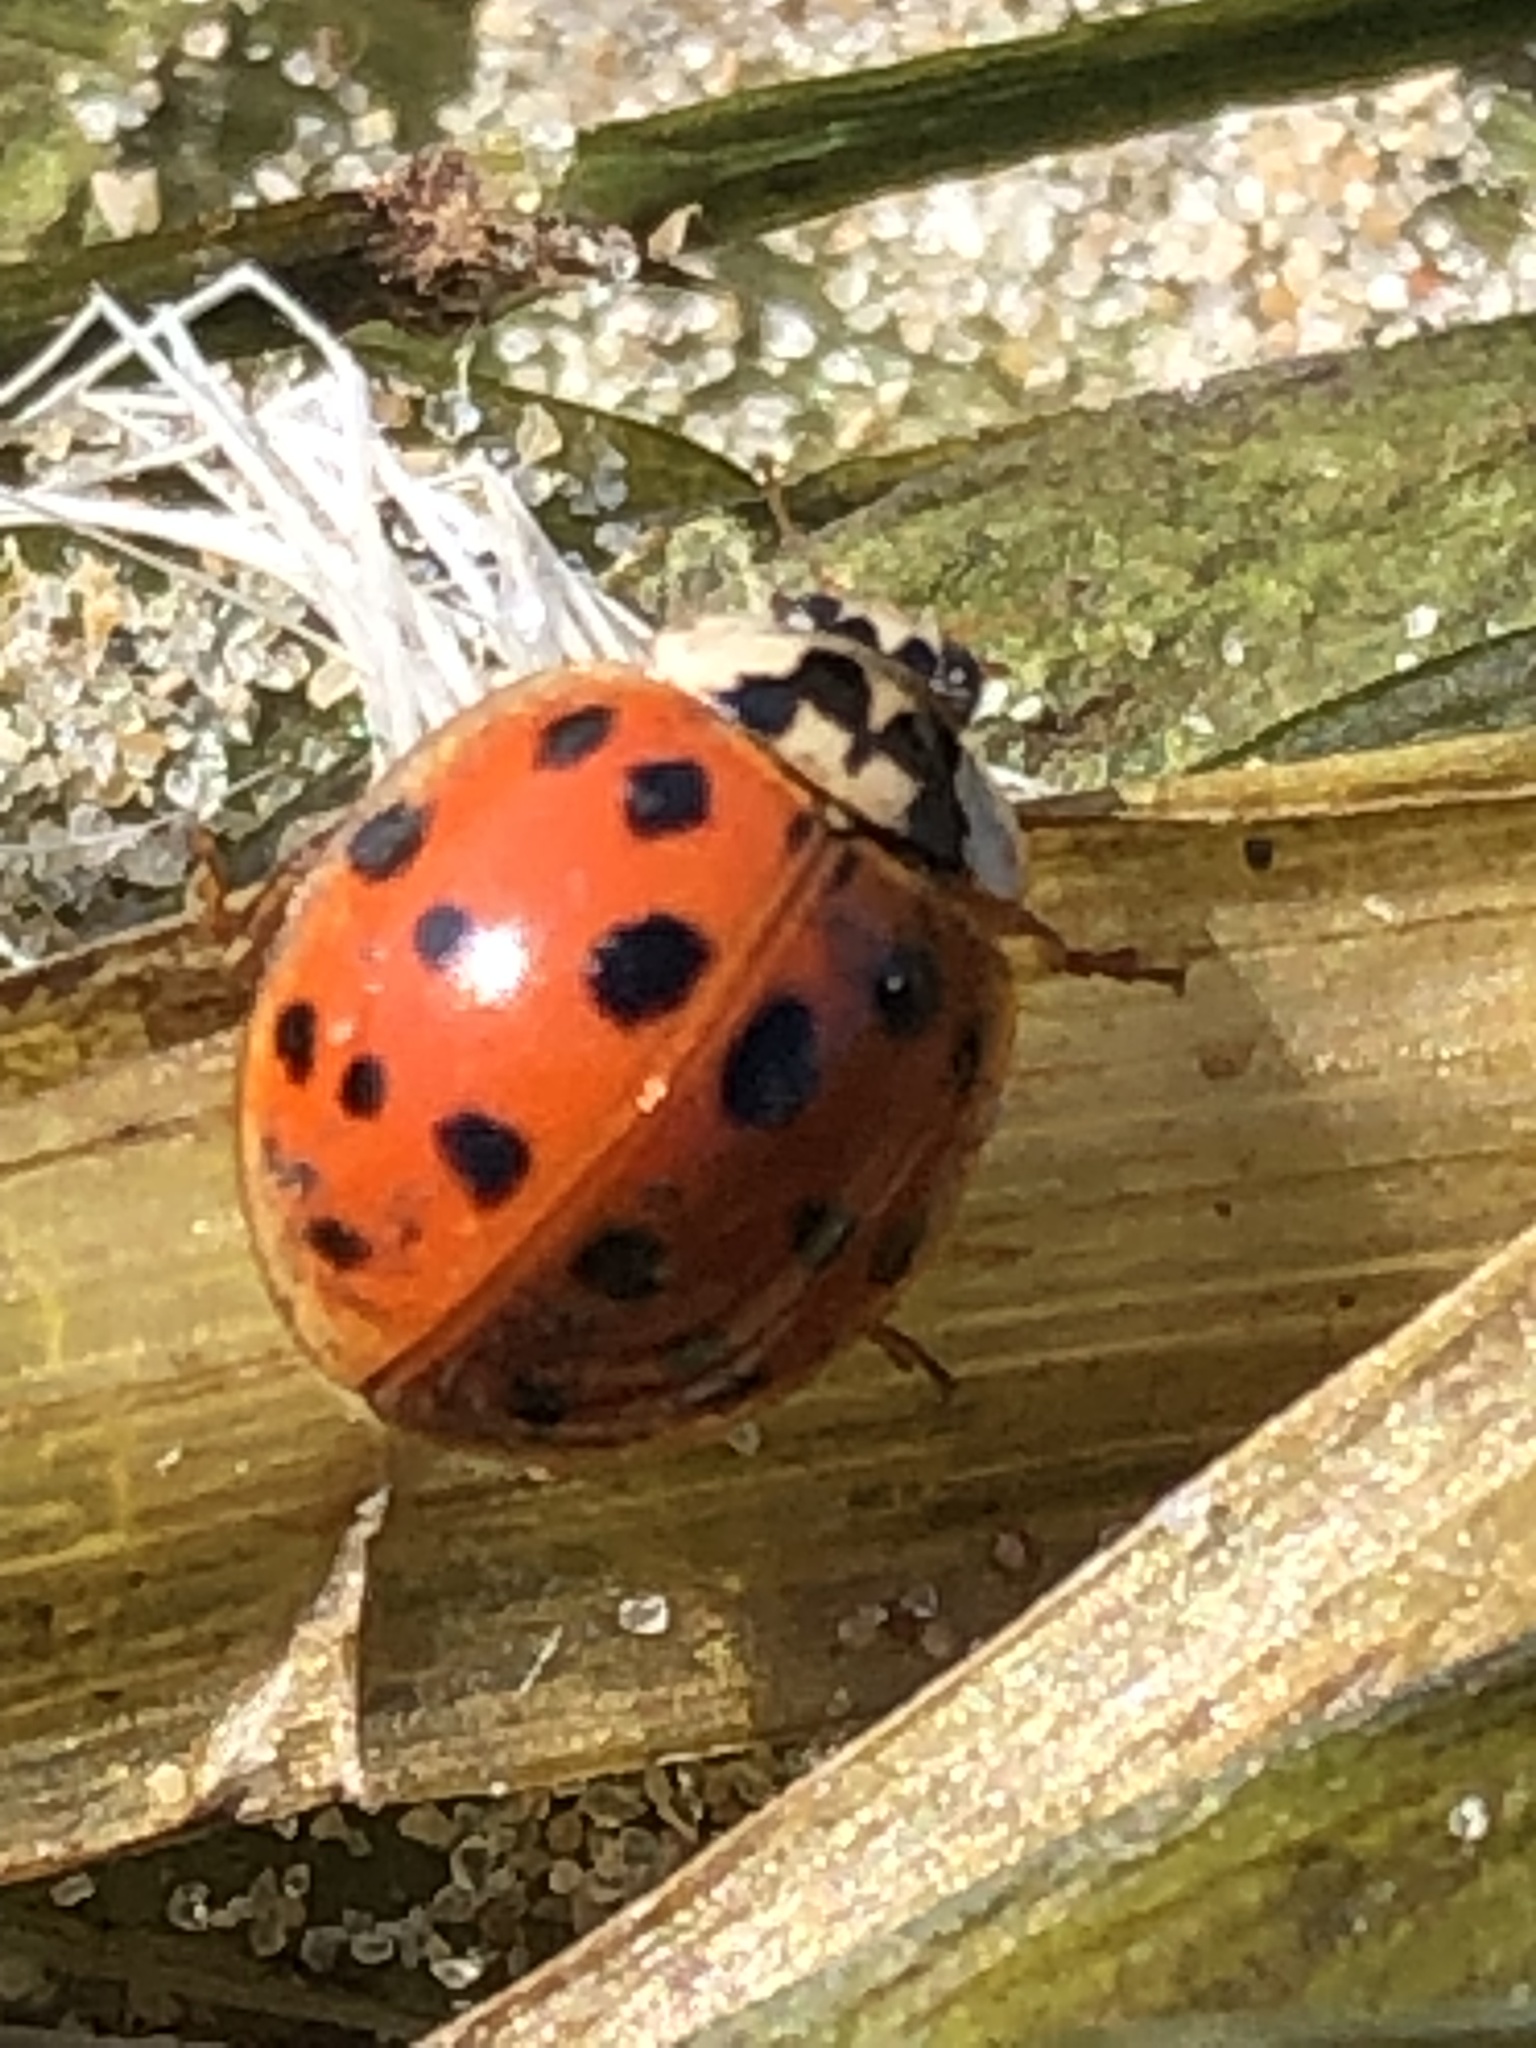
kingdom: Animalia
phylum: Arthropoda
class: Insecta
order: Coleoptera
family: Coccinellidae
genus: Harmonia
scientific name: Harmonia axyridis
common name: Harlequin ladybird
